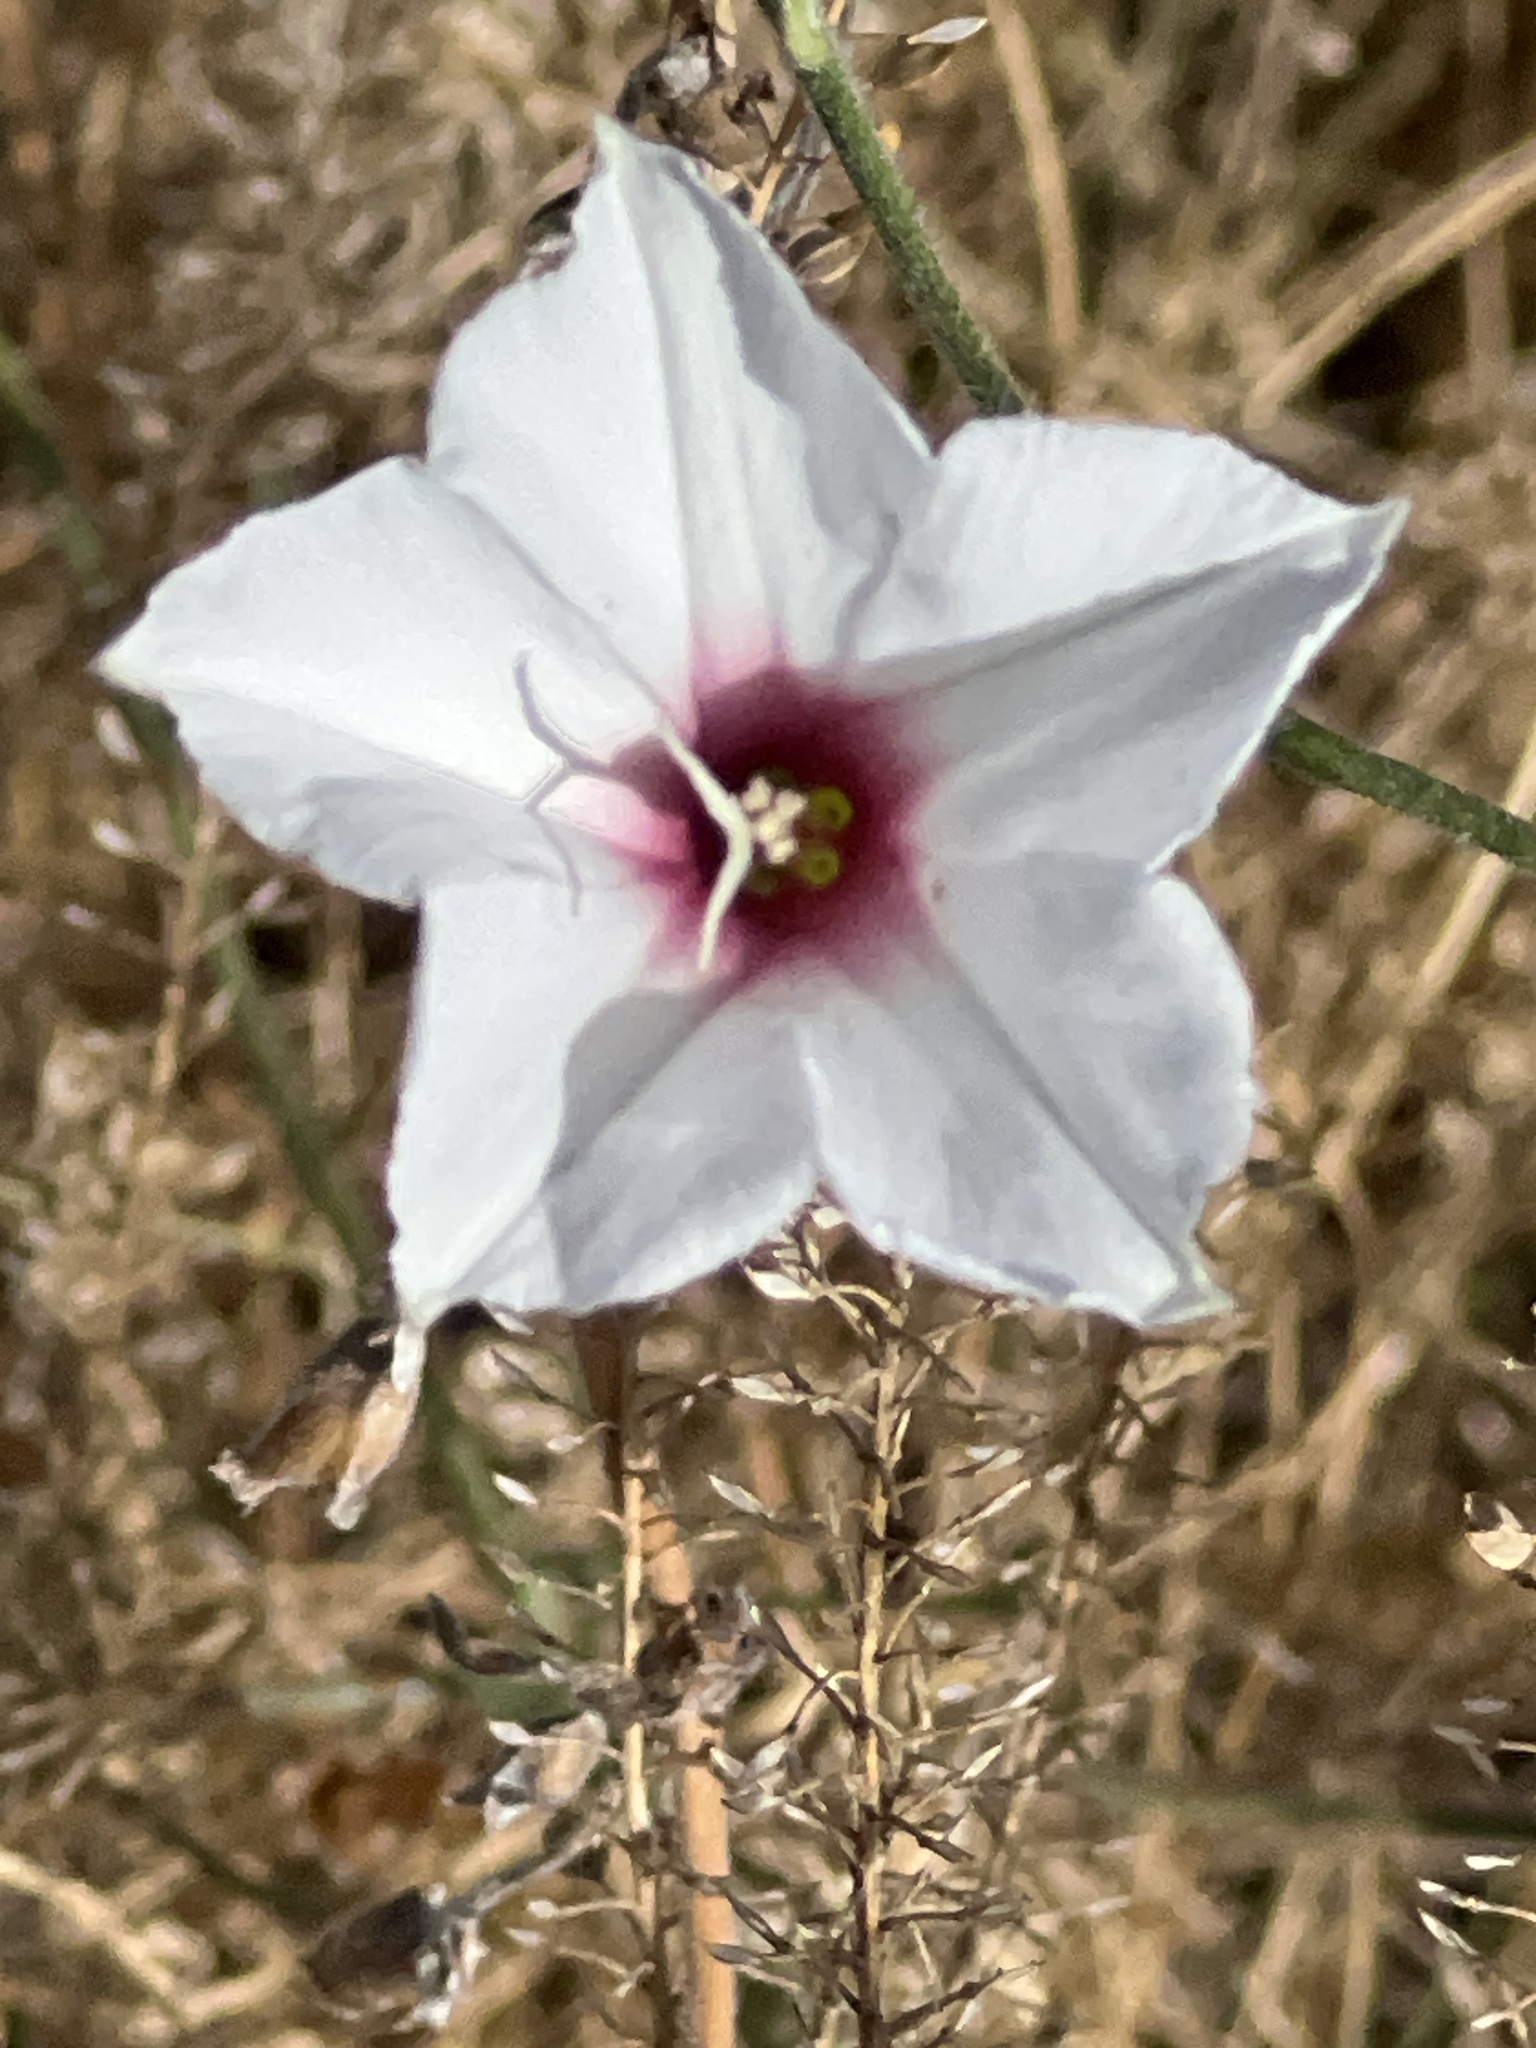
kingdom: Plantae
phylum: Tracheophyta
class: Magnoliopsida
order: Solanales
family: Convolvulaceae
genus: Convolvulus
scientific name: Convolvulus equitans
